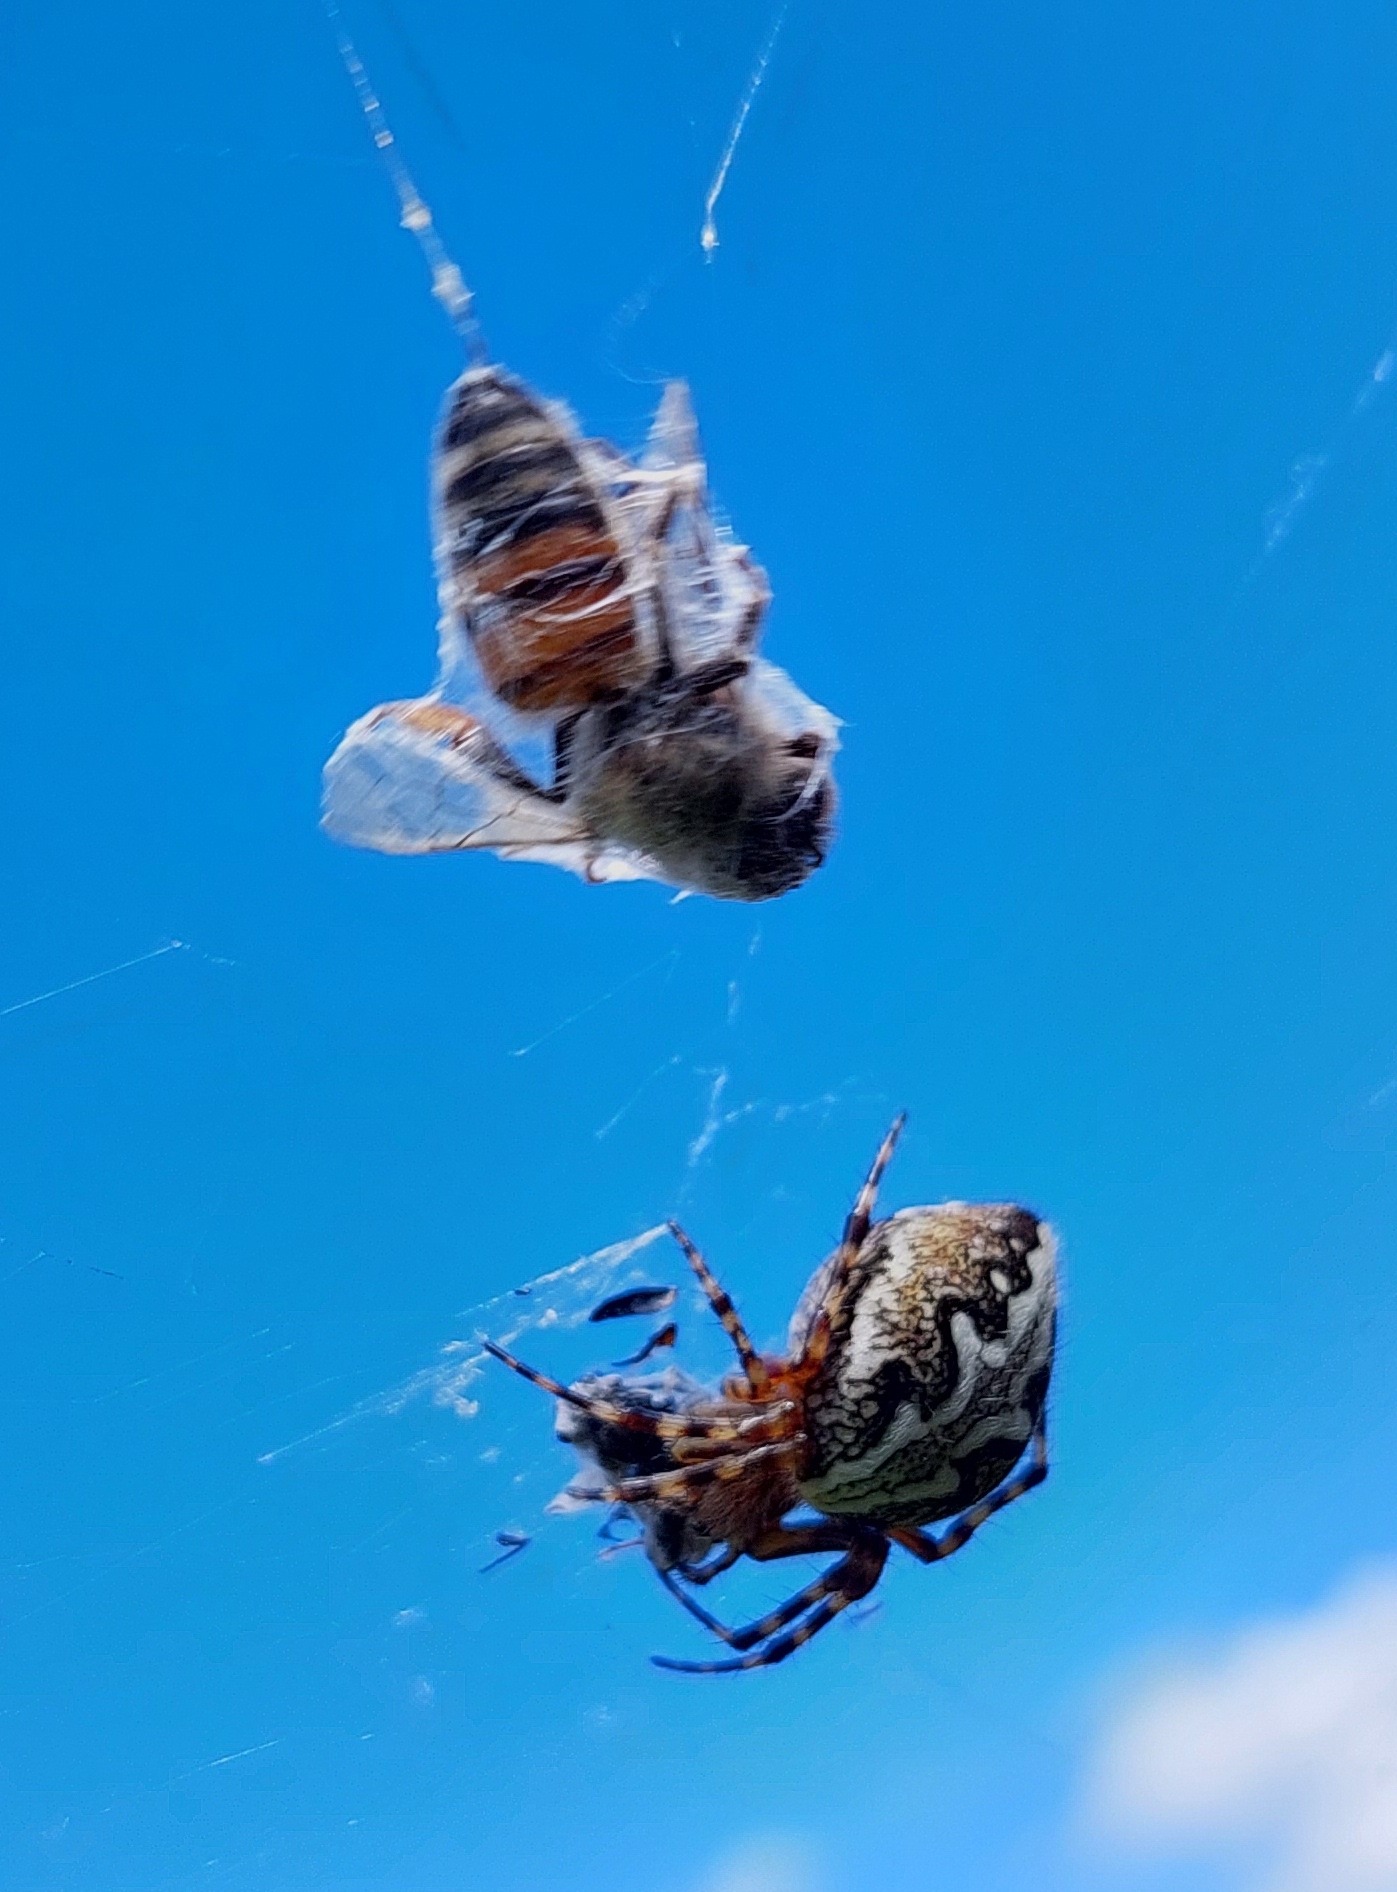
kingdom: Animalia
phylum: Arthropoda
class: Arachnida
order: Araneae
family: Araneidae
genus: Aculepeira
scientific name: Aculepeira ceropegia
